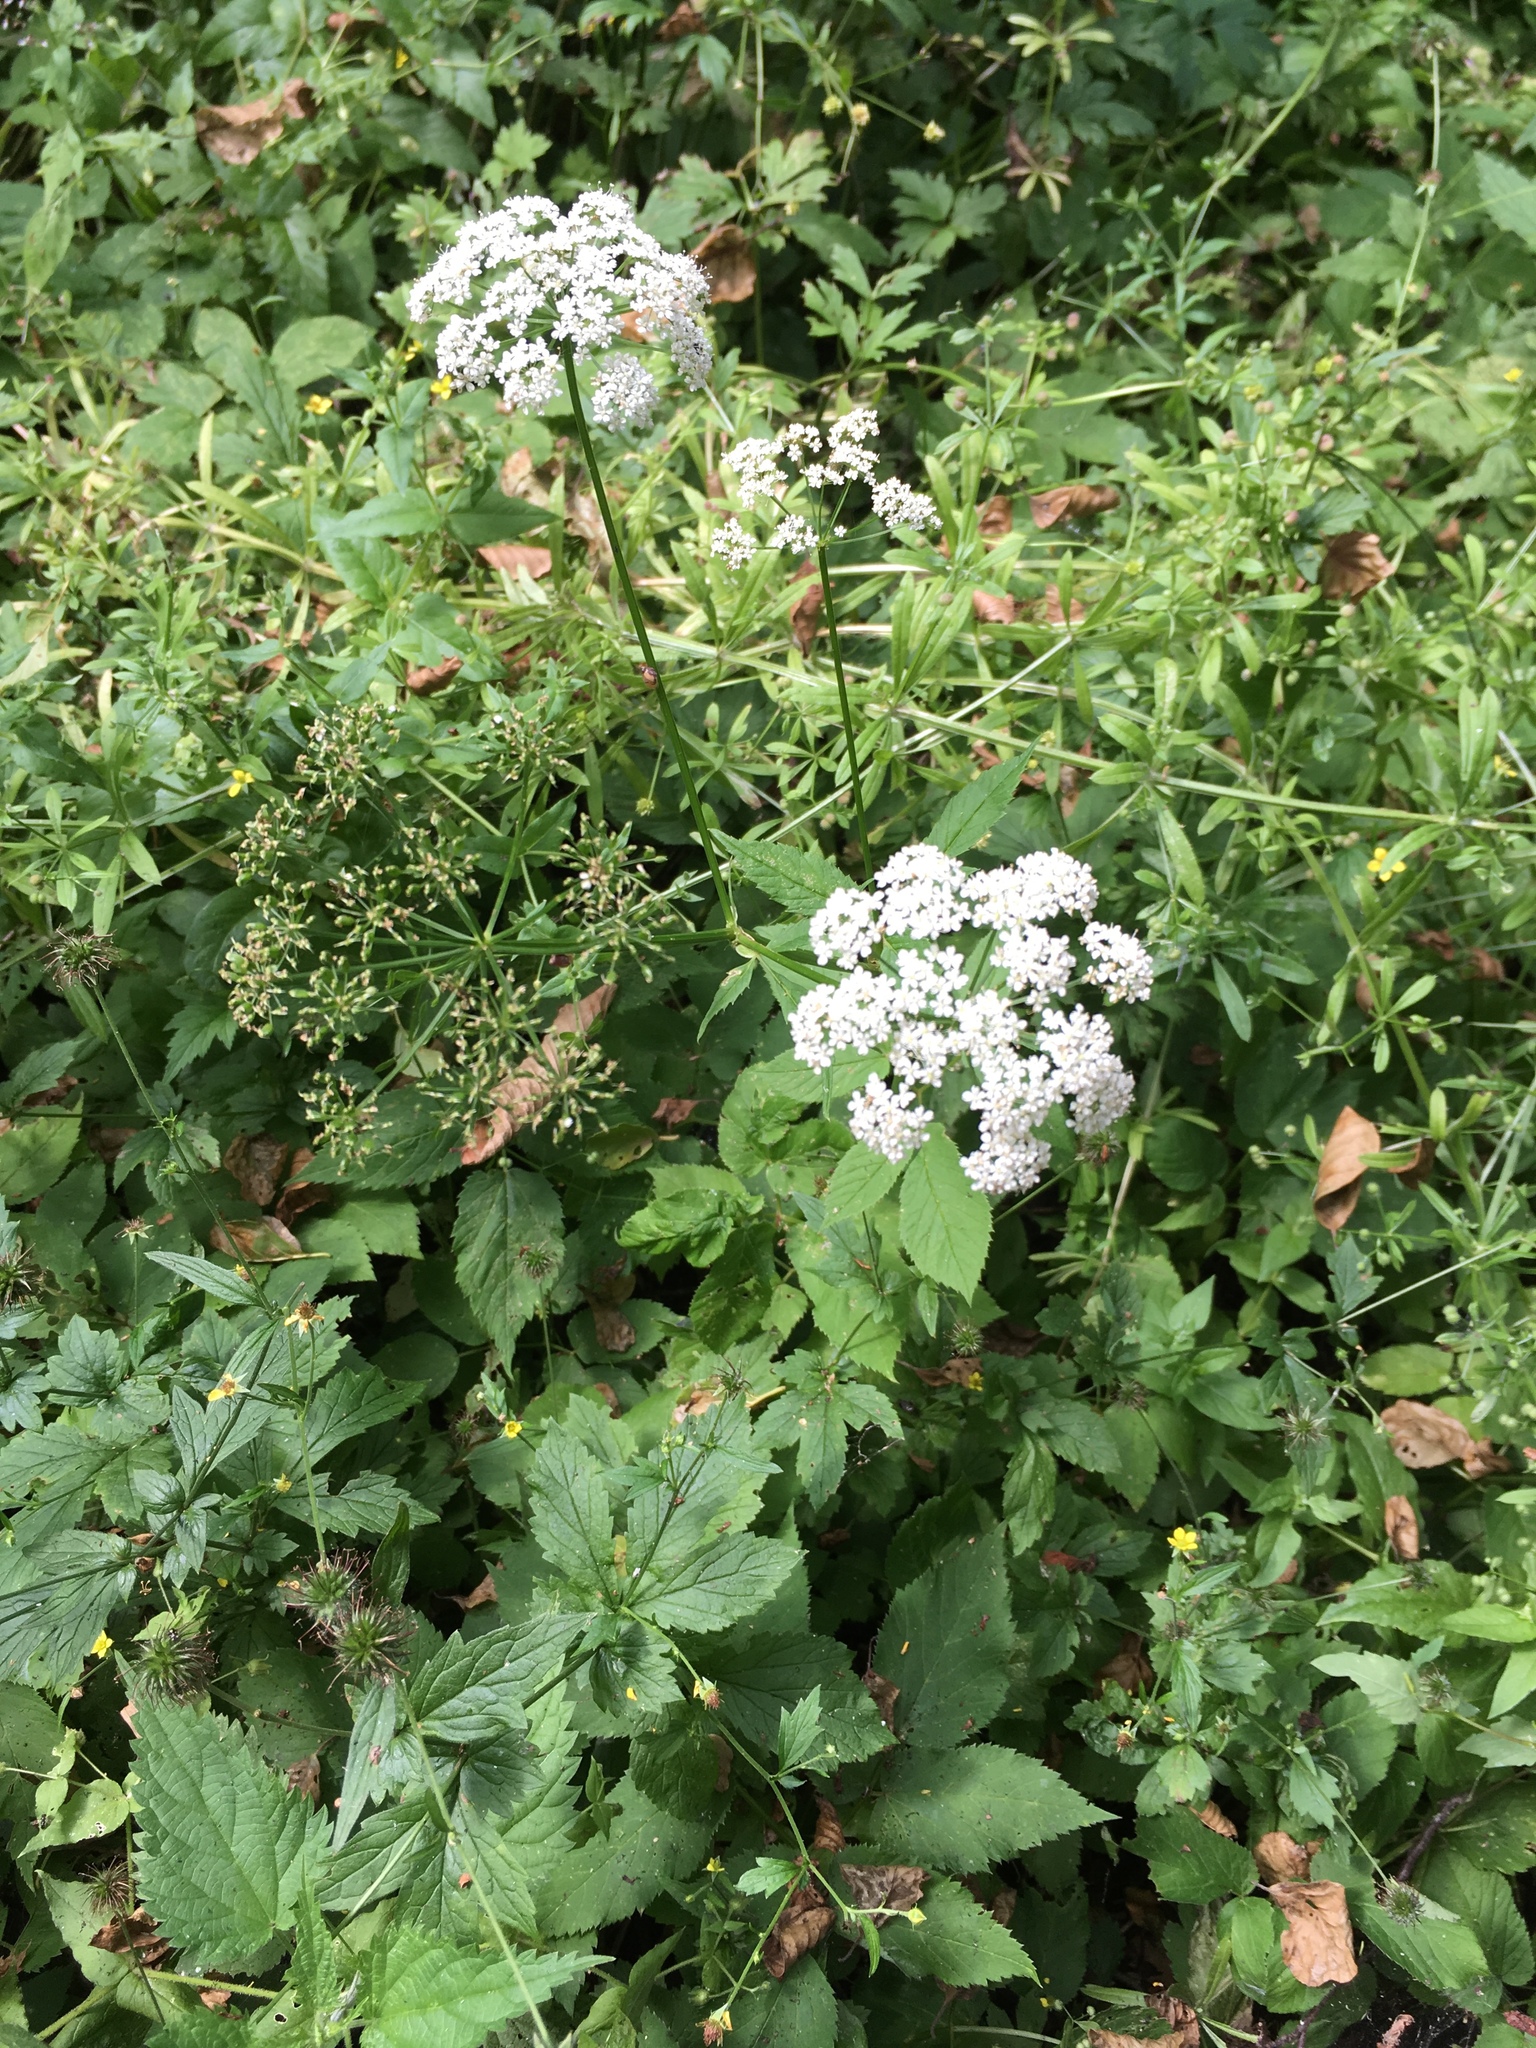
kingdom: Plantae
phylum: Tracheophyta
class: Magnoliopsida
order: Apiales
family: Apiaceae
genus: Aegopodium
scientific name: Aegopodium podagraria
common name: Ground-elder
